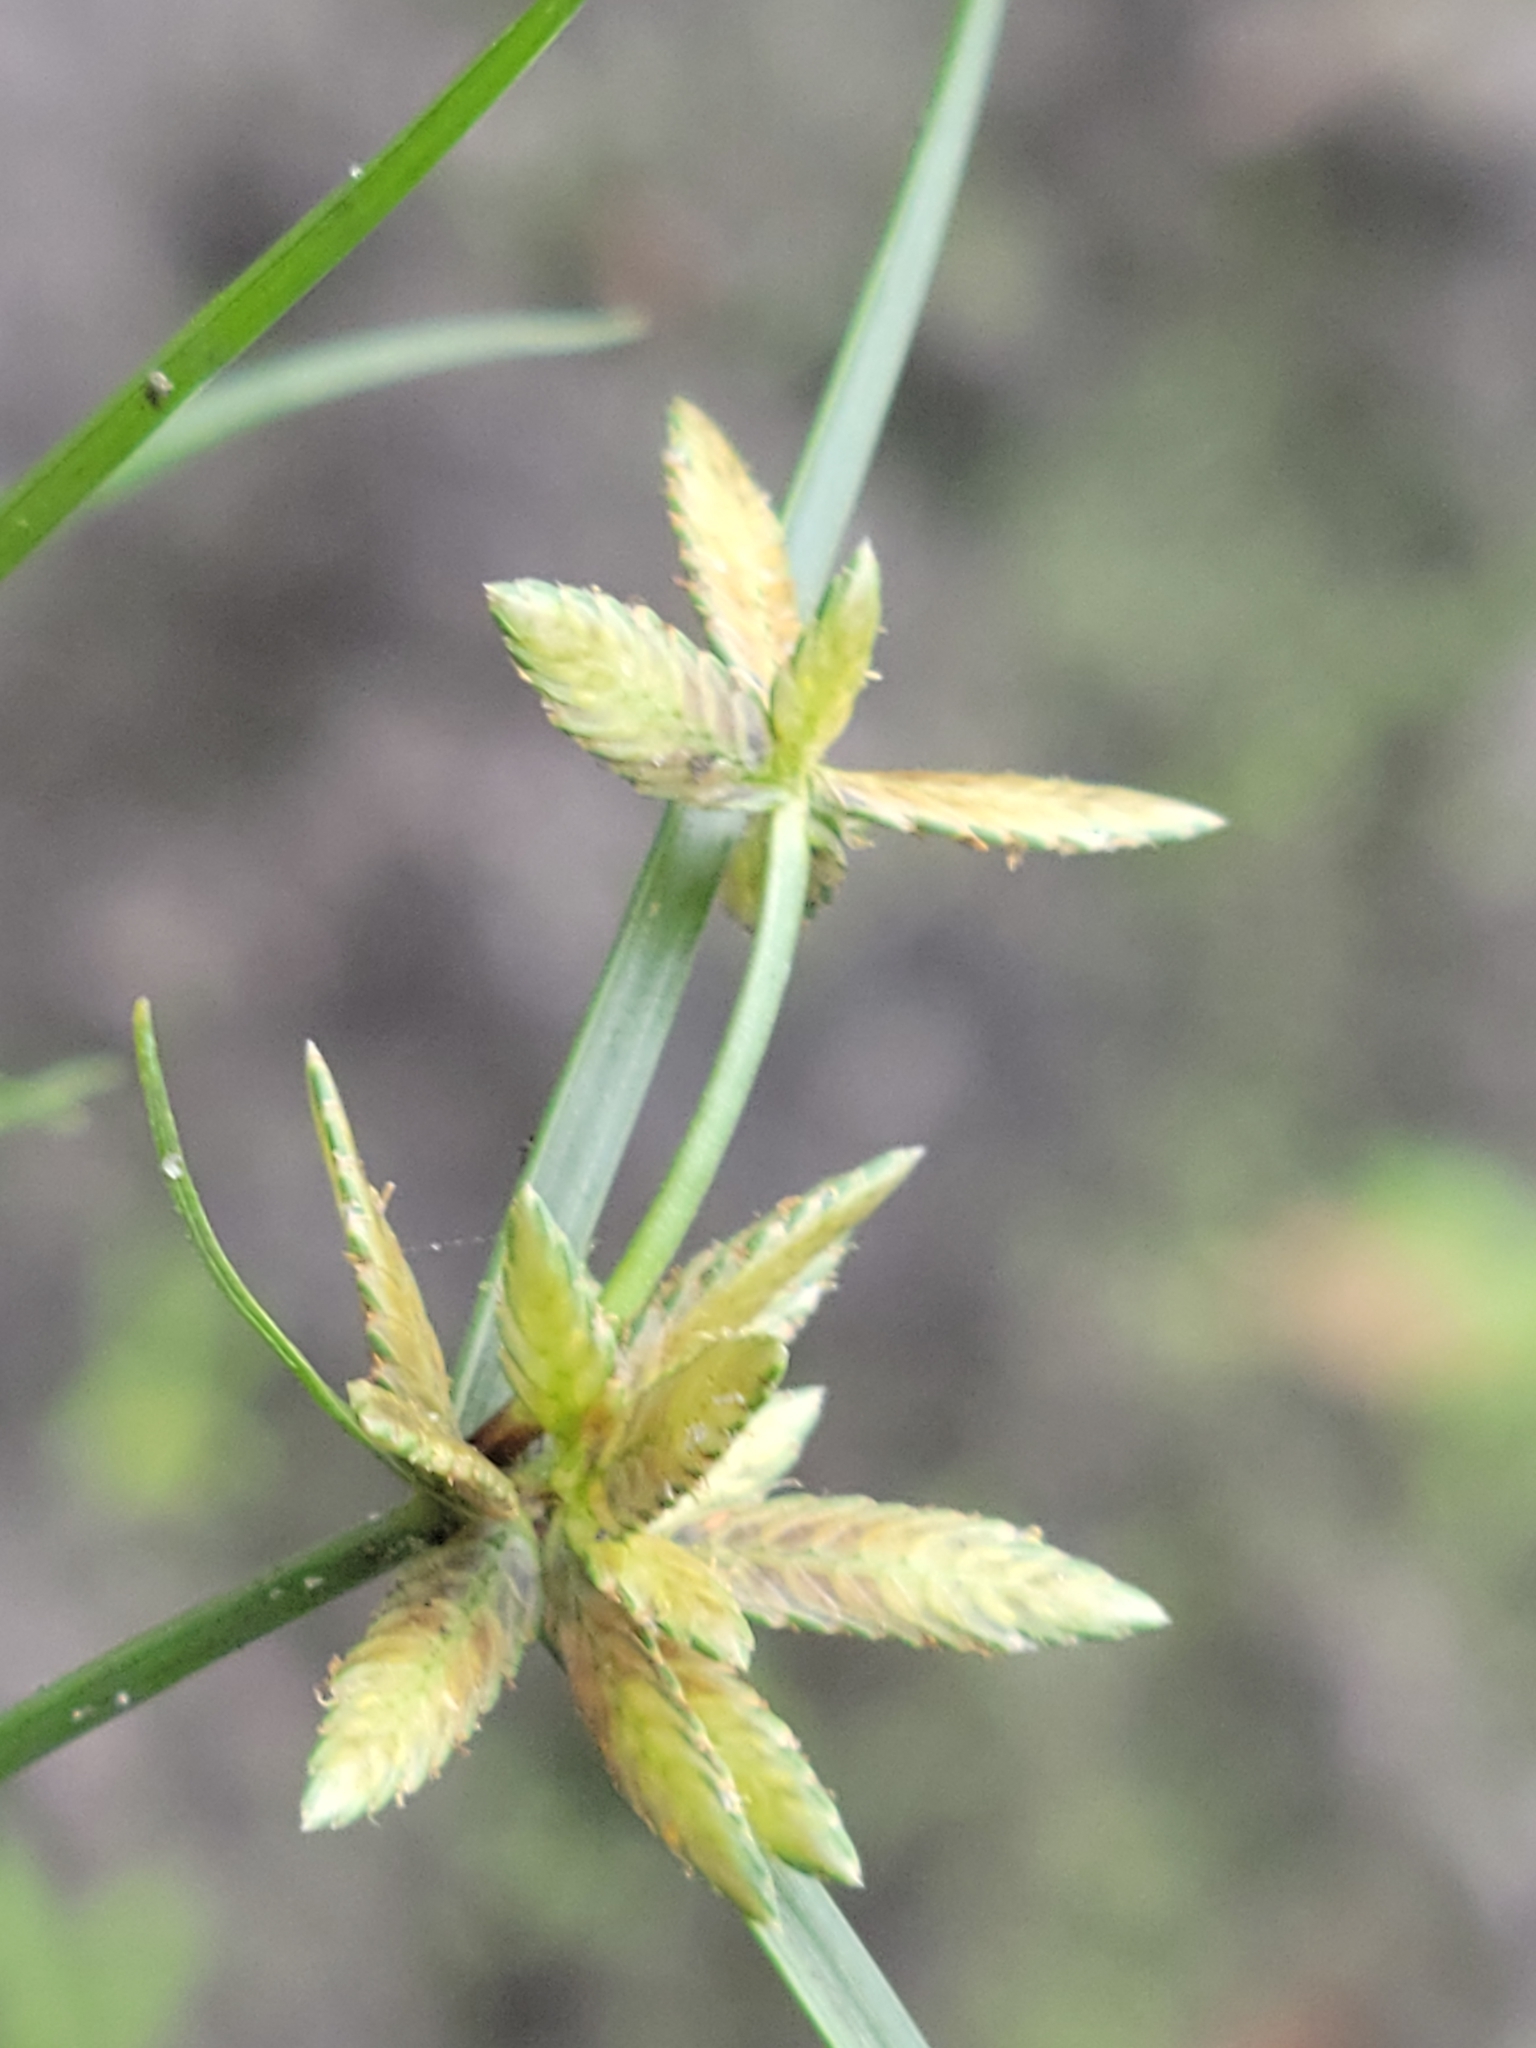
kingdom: Plantae
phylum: Tracheophyta
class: Liliopsida
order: Poales
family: Cyperaceae
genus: Cyperus
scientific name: Cyperus flavescens
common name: Yellow galingale
